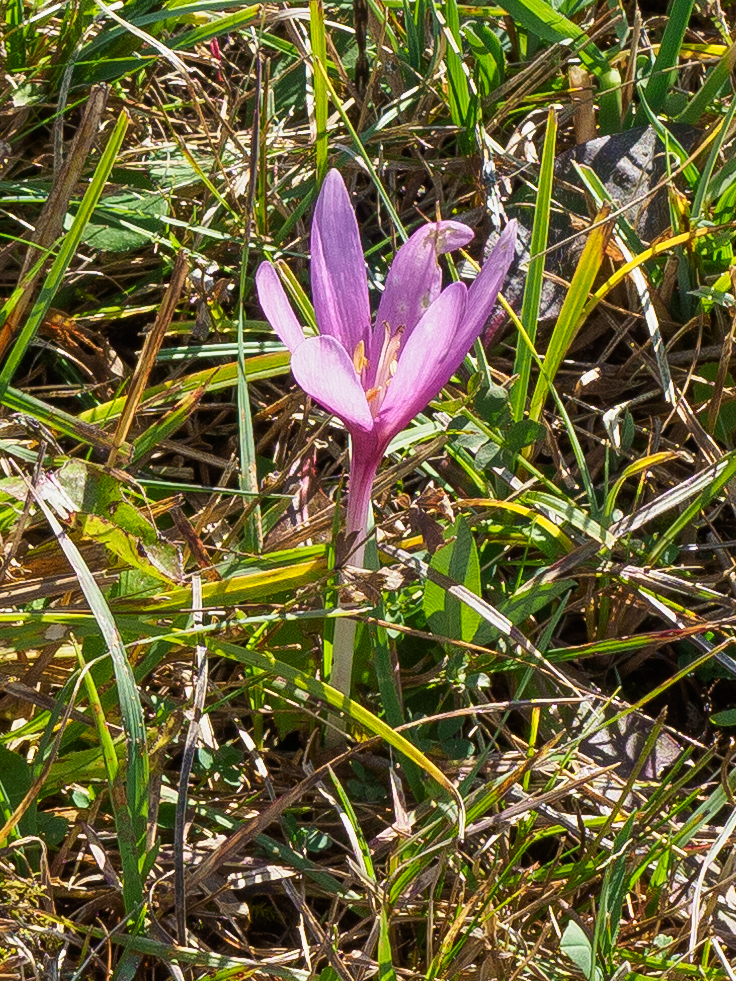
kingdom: Plantae
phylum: Tracheophyta
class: Liliopsida
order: Liliales
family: Colchicaceae
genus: Colchicum
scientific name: Colchicum autumnale
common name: Autumn crocus
